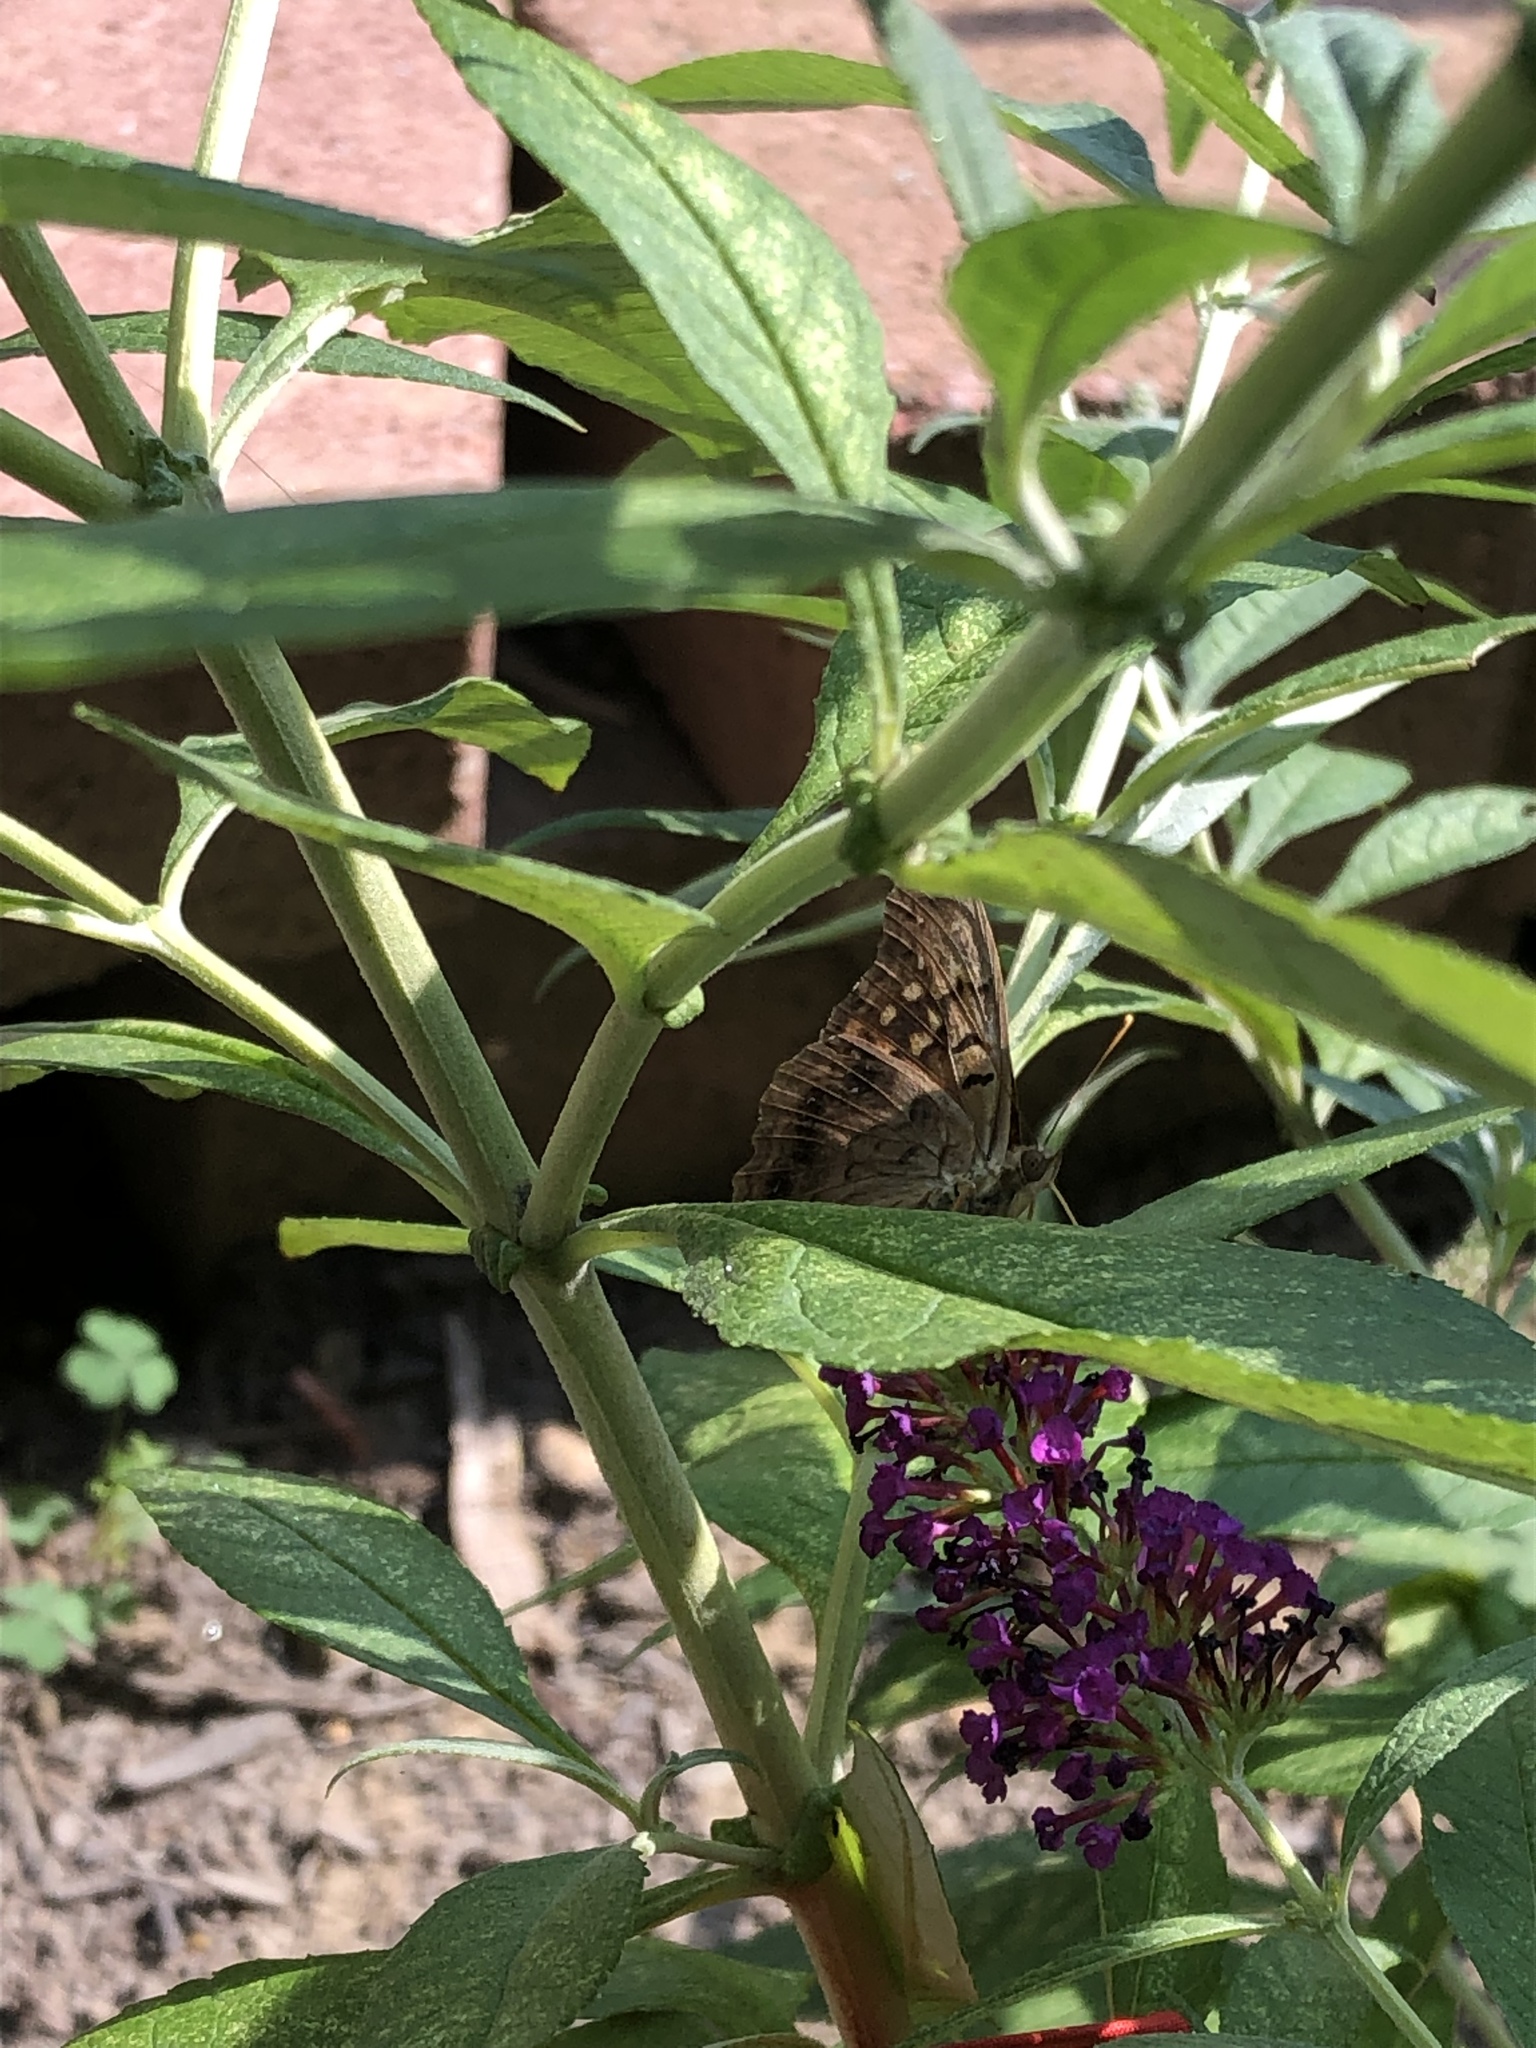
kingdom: Animalia
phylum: Arthropoda
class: Insecta
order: Lepidoptera
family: Nymphalidae
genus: Asterocampa
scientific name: Asterocampa clyton
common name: Tawny emperor
